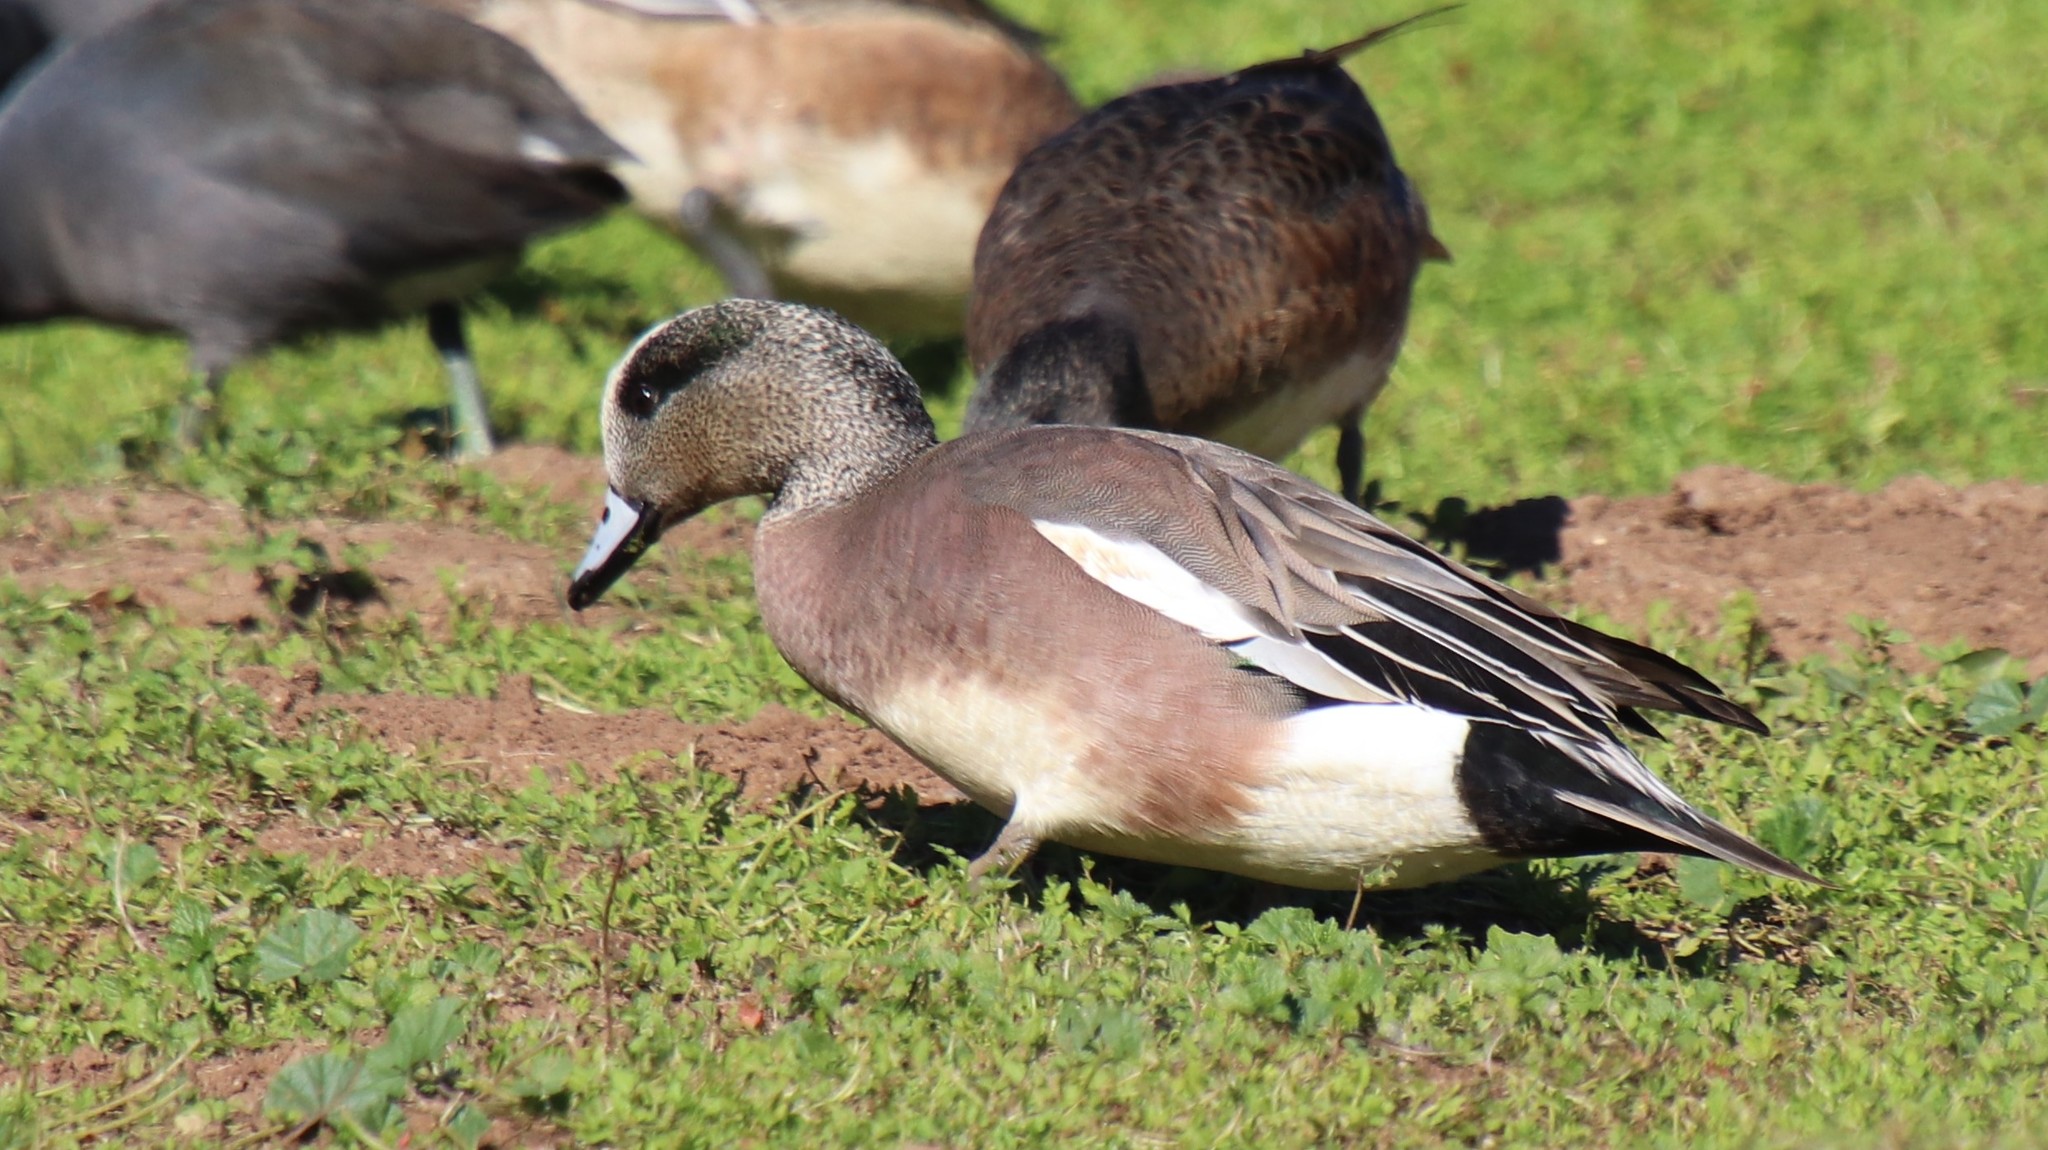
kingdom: Animalia
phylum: Chordata
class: Aves
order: Anseriformes
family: Anatidae
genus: Mareca
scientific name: Mareca americana
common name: American wigeon
